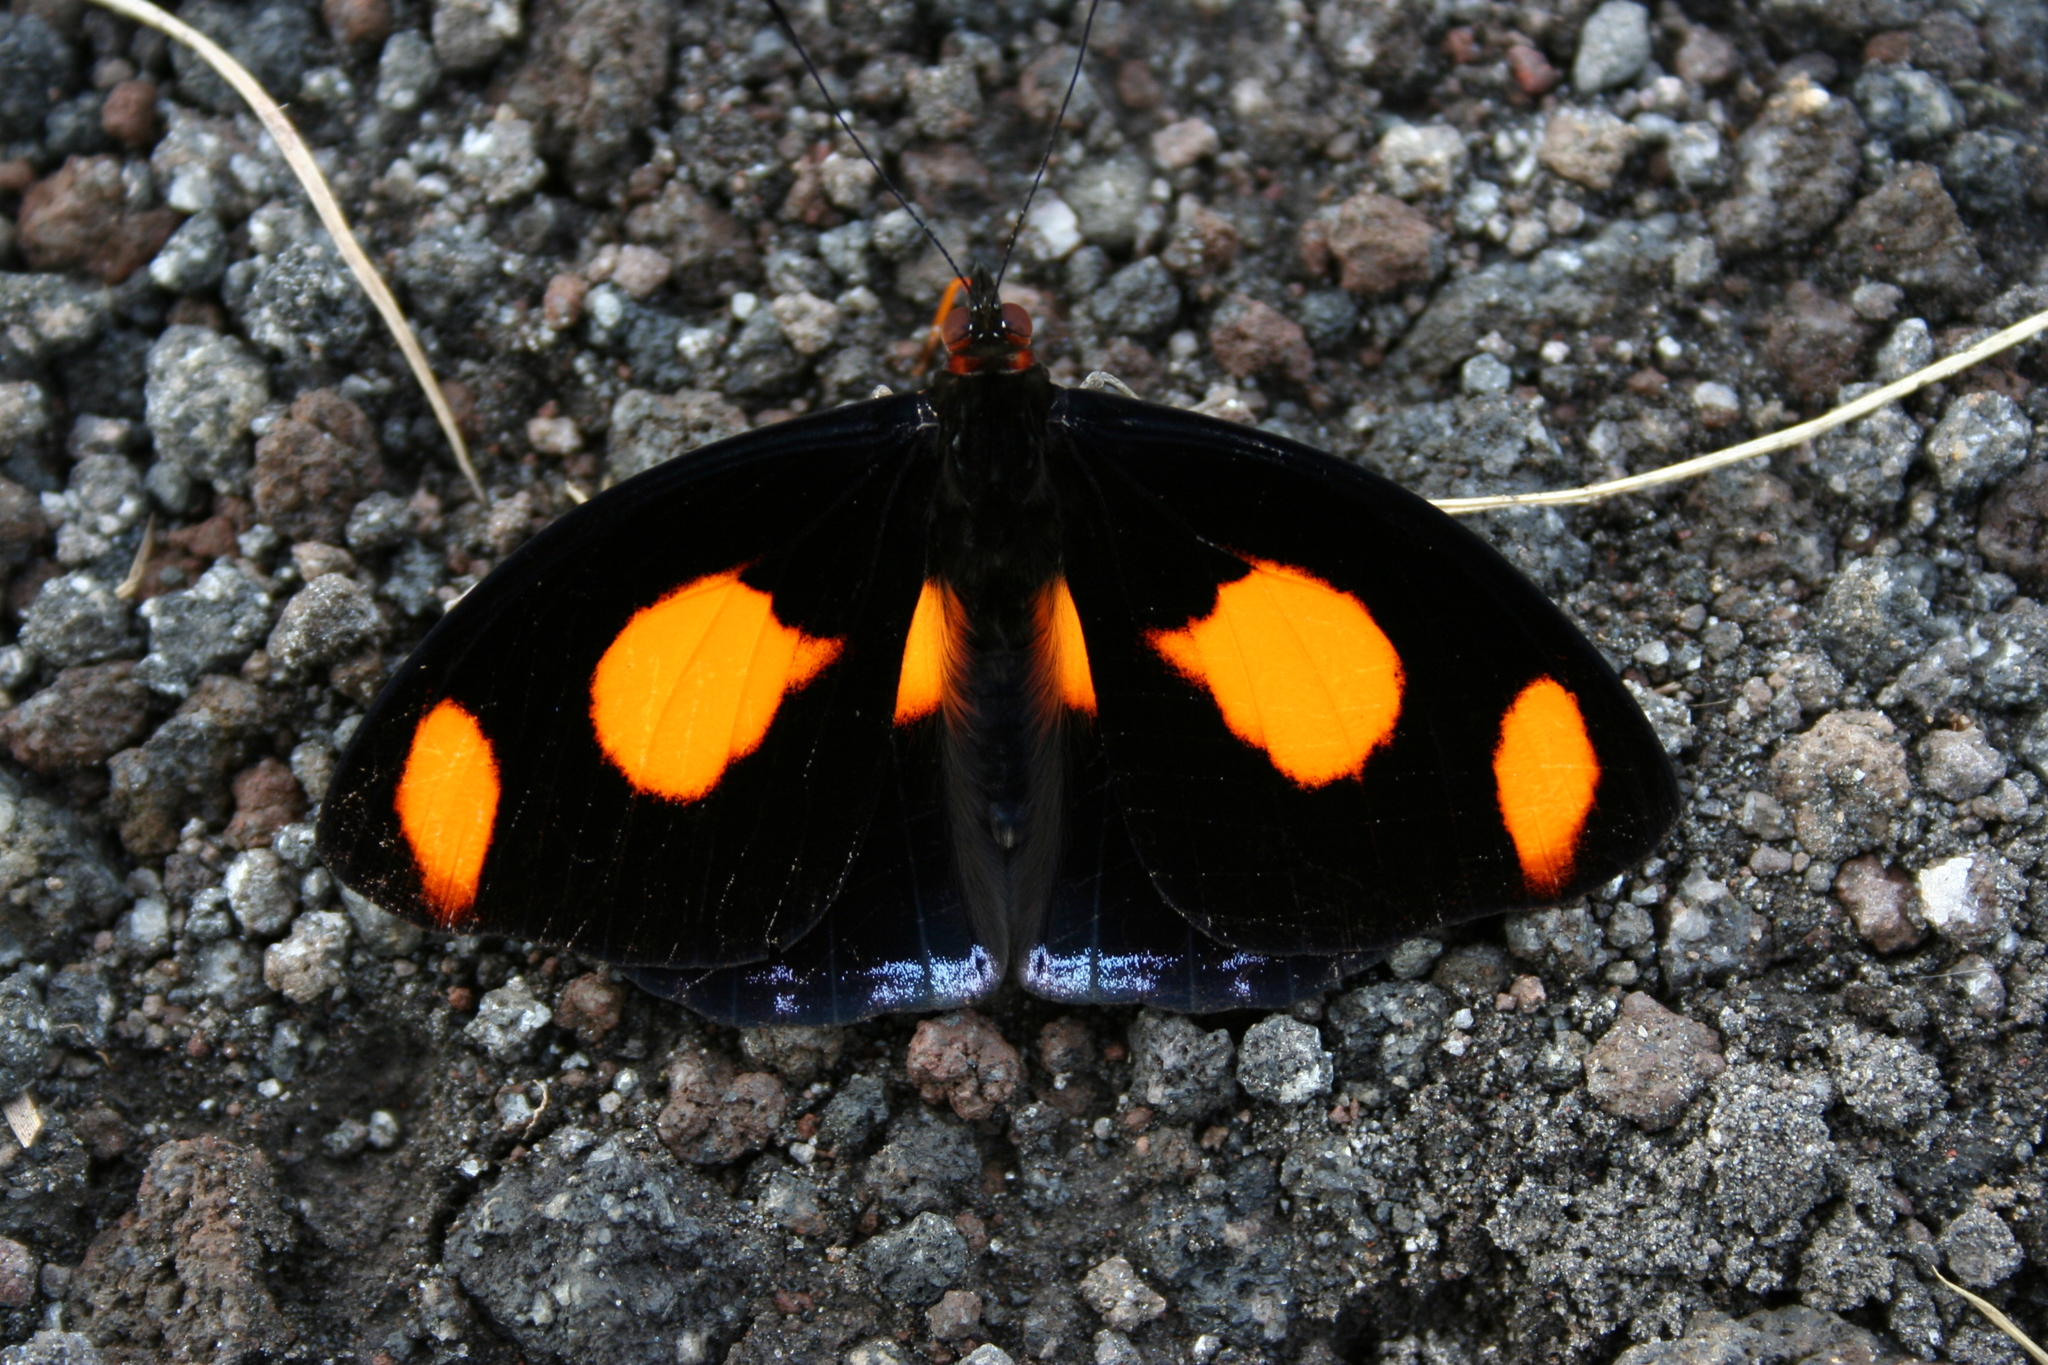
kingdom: Animalia
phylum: Arthropoda
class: Insecta
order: Lepidoptera
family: Nymphalidae
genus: Catonephele
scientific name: Catonephele numilia
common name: Blue-frosted banner
